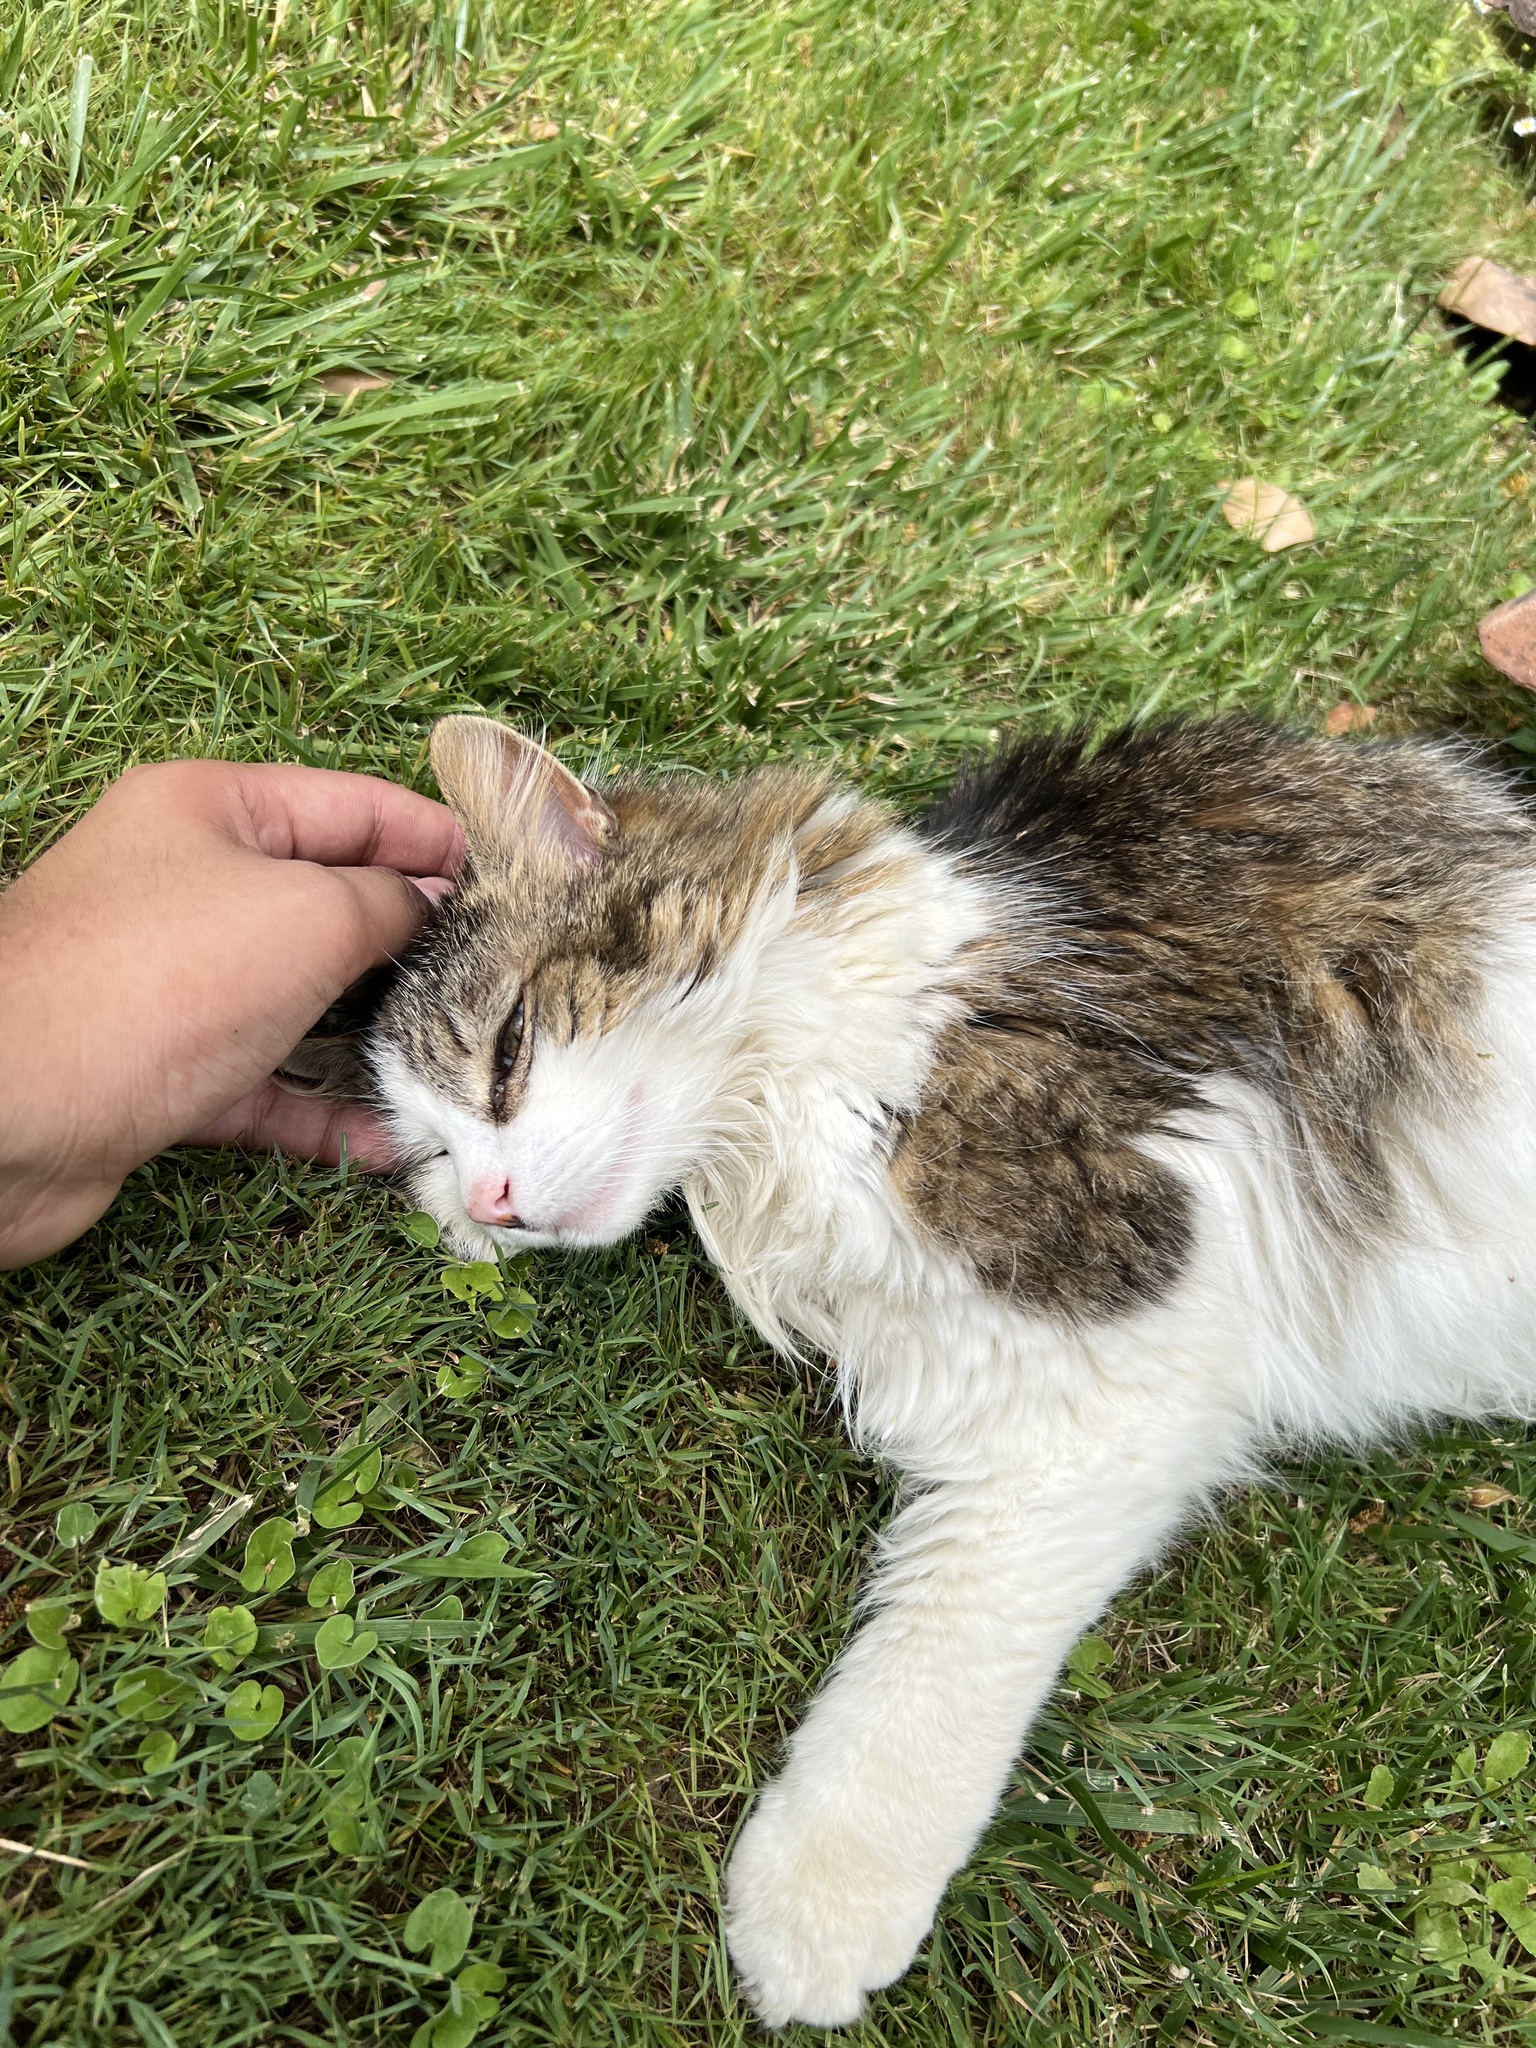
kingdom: Animalia
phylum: Chordata
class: Mammalia
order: Carnivora
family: Felidae
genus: Felis
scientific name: Felis catus
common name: Domestic cat
